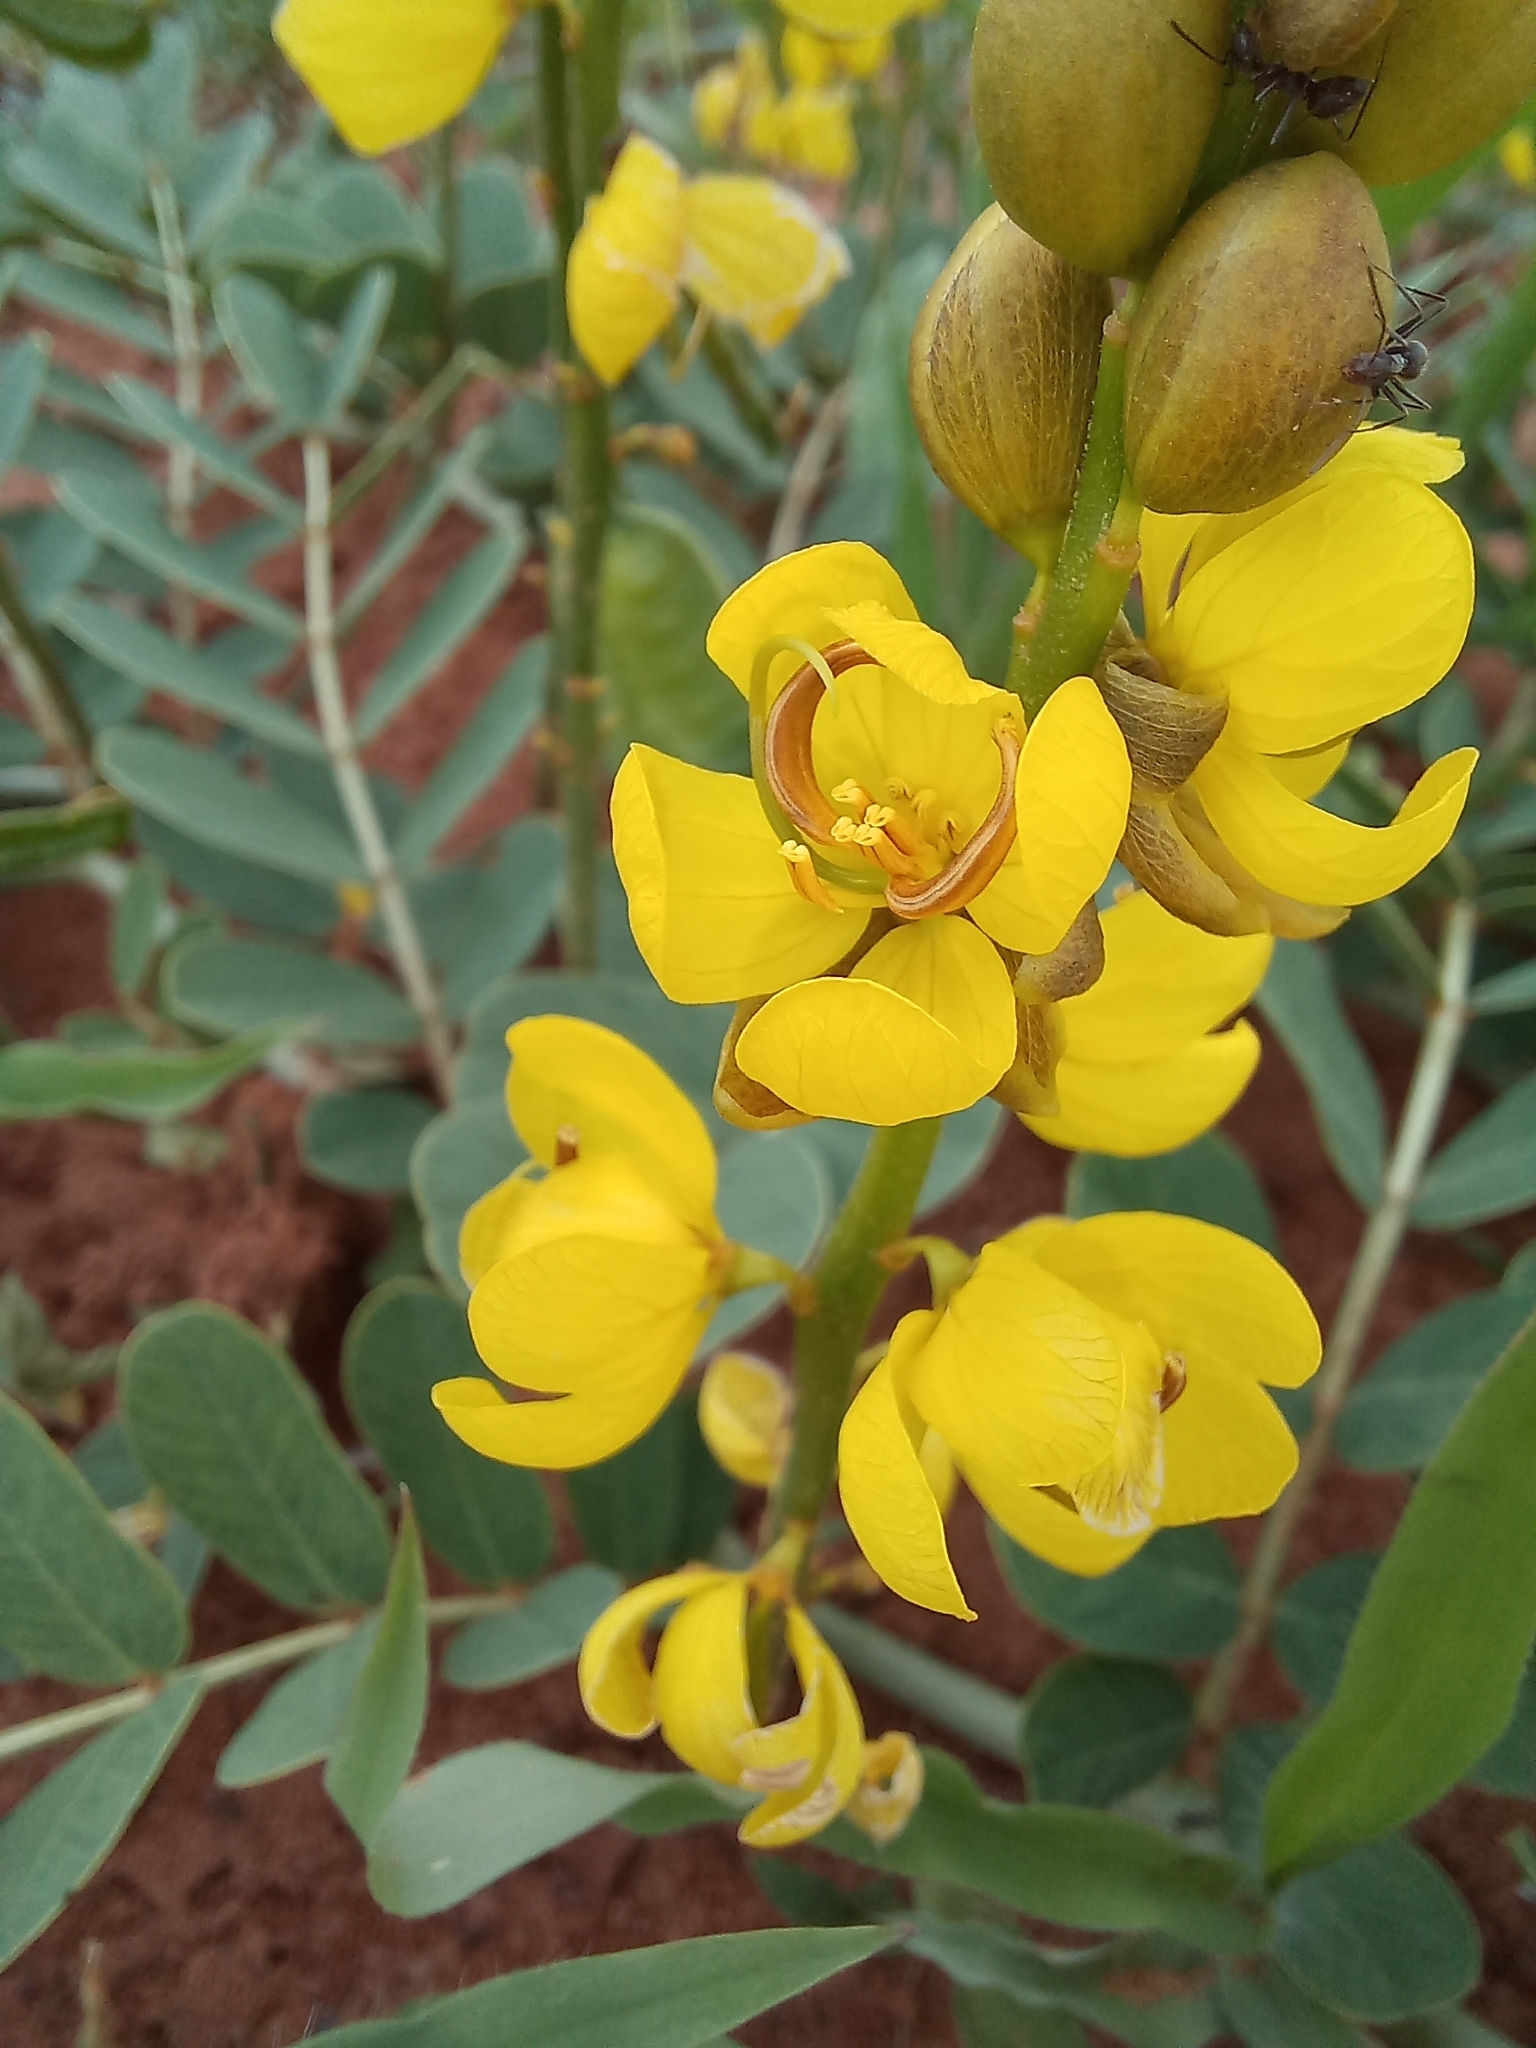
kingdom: Plantae
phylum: Tracheophyta
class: Magnoliopsida
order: Fabales
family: Fabaceae
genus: Senna
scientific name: Senna italica
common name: Port royal senna
